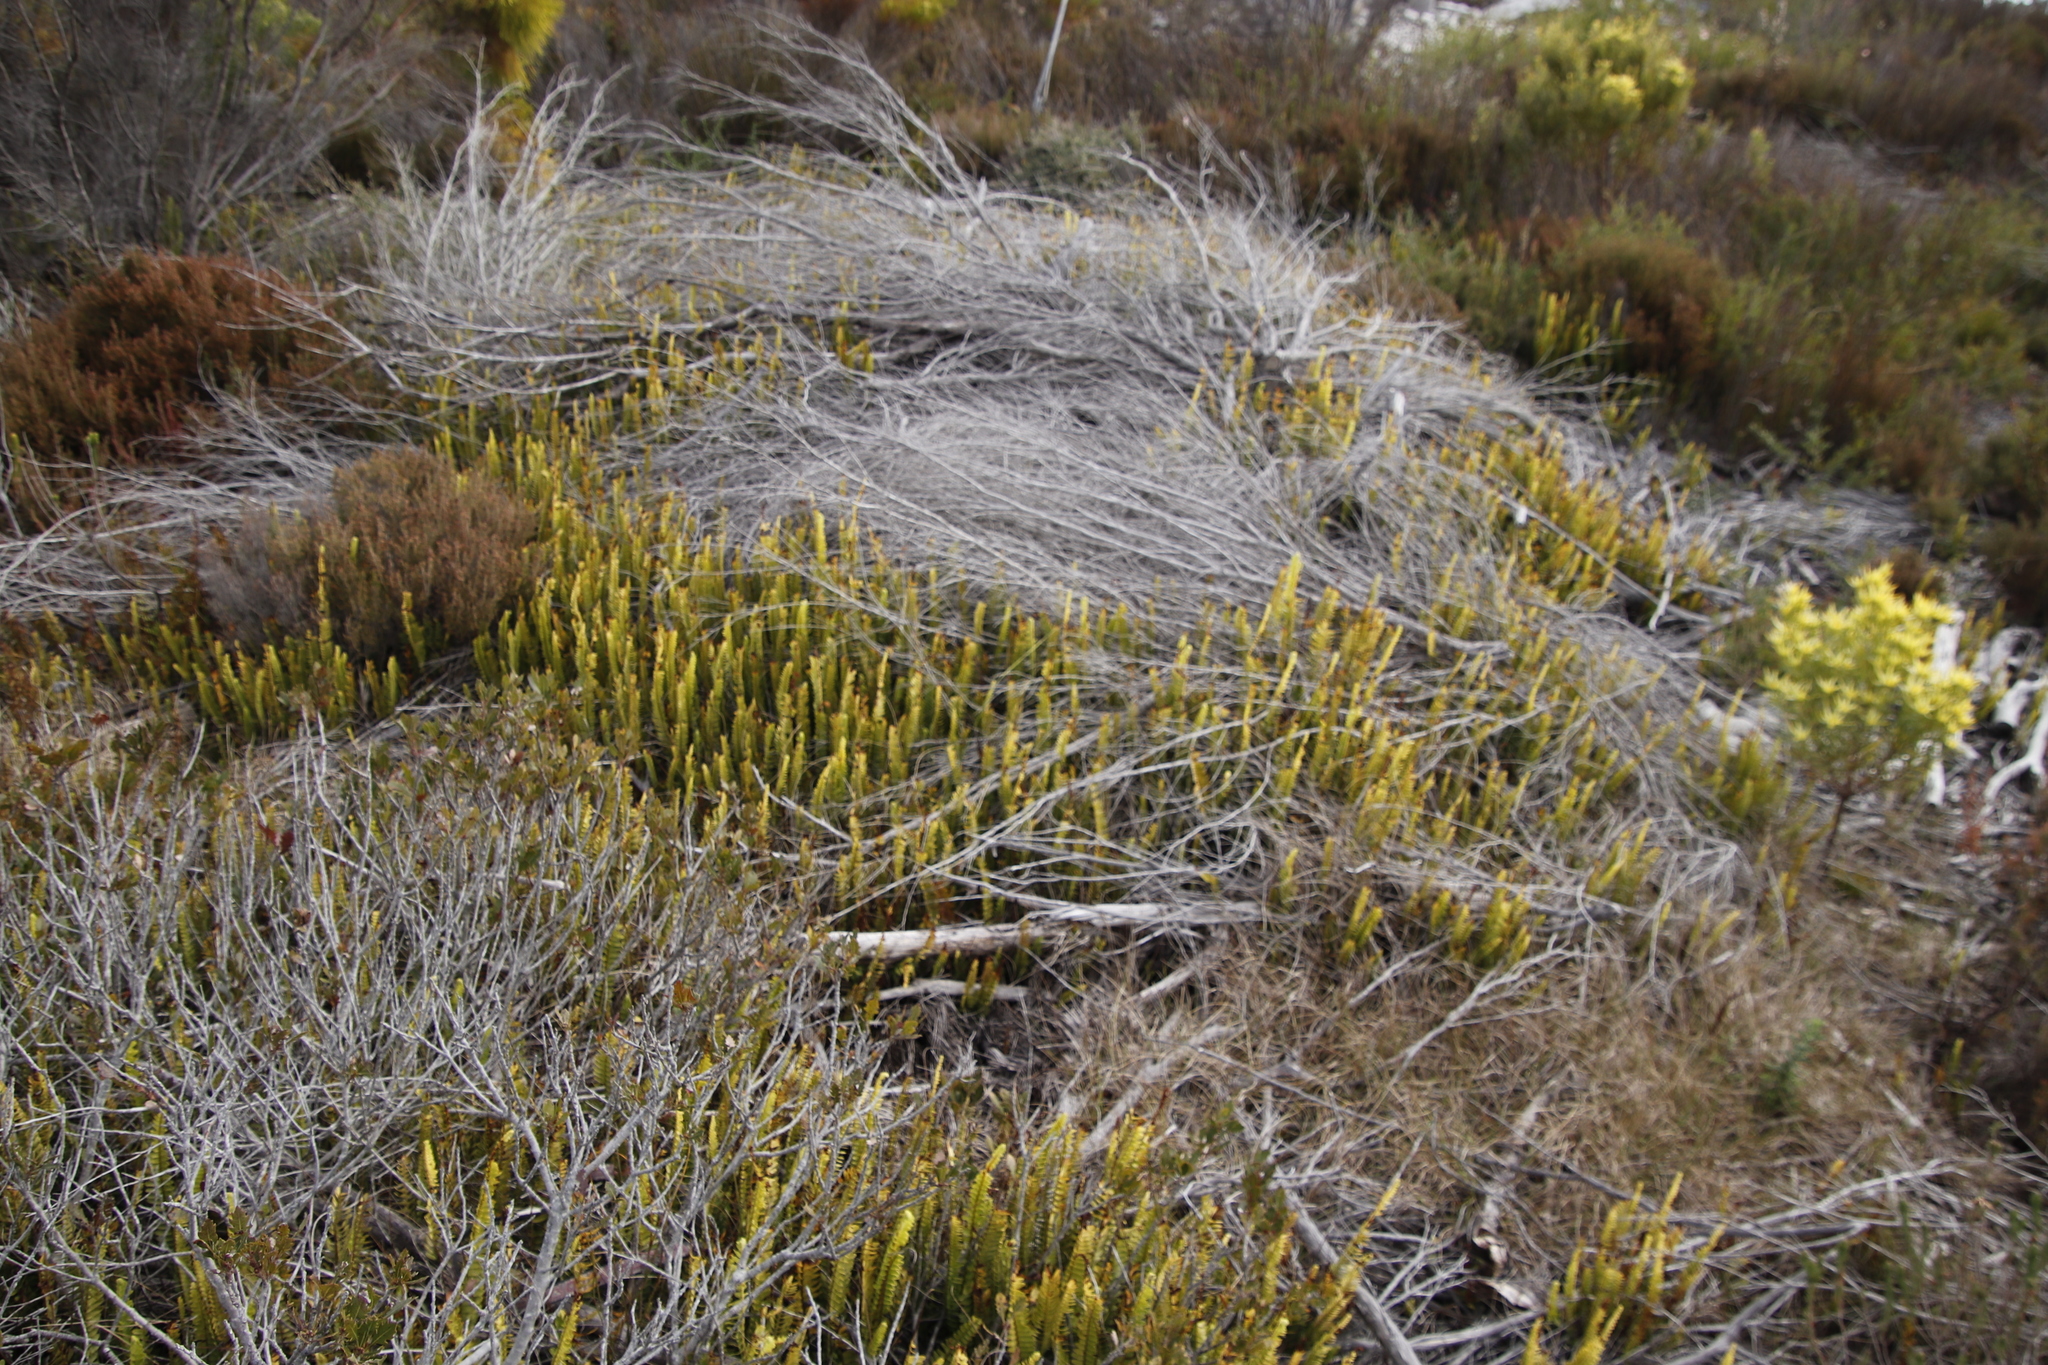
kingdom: Plantae
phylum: Tracheophyta
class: Polypodiopsida
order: Polypodiales
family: Nephrolepidaceae
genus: Nephrolepis
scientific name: Nephrolepis cordifolia
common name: Narrow swordfern
